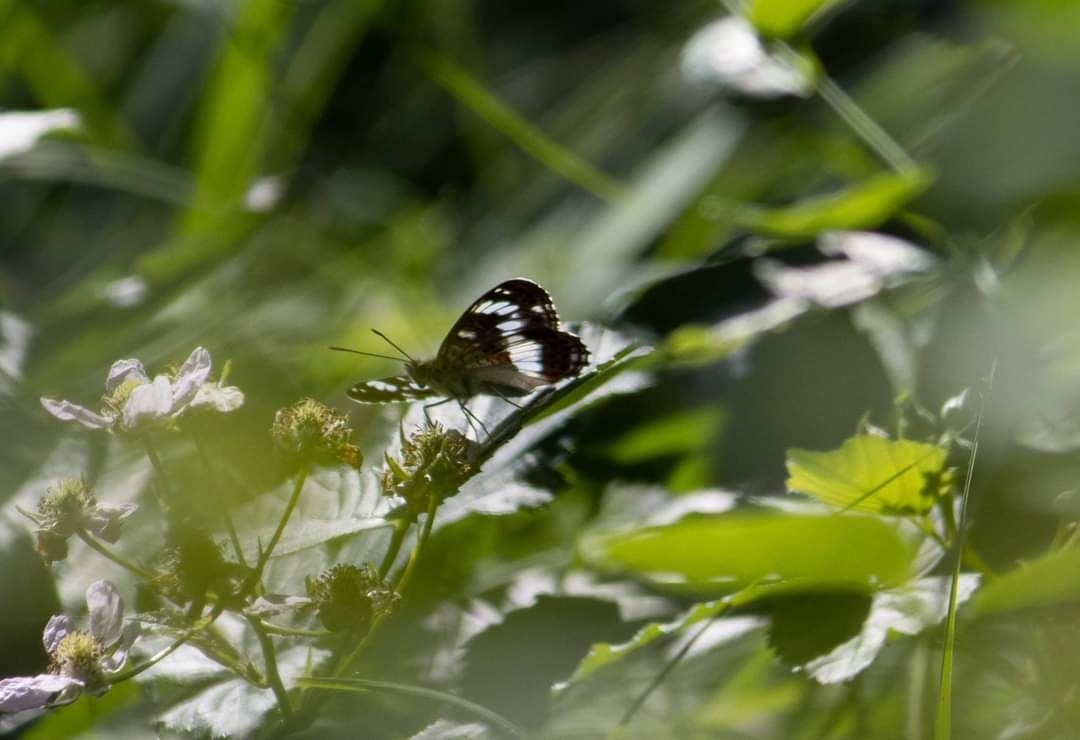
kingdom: Animalia
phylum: Arthropoda
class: Insecta
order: Lepidoptera
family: Nymphalidae
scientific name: Nymphalidae
